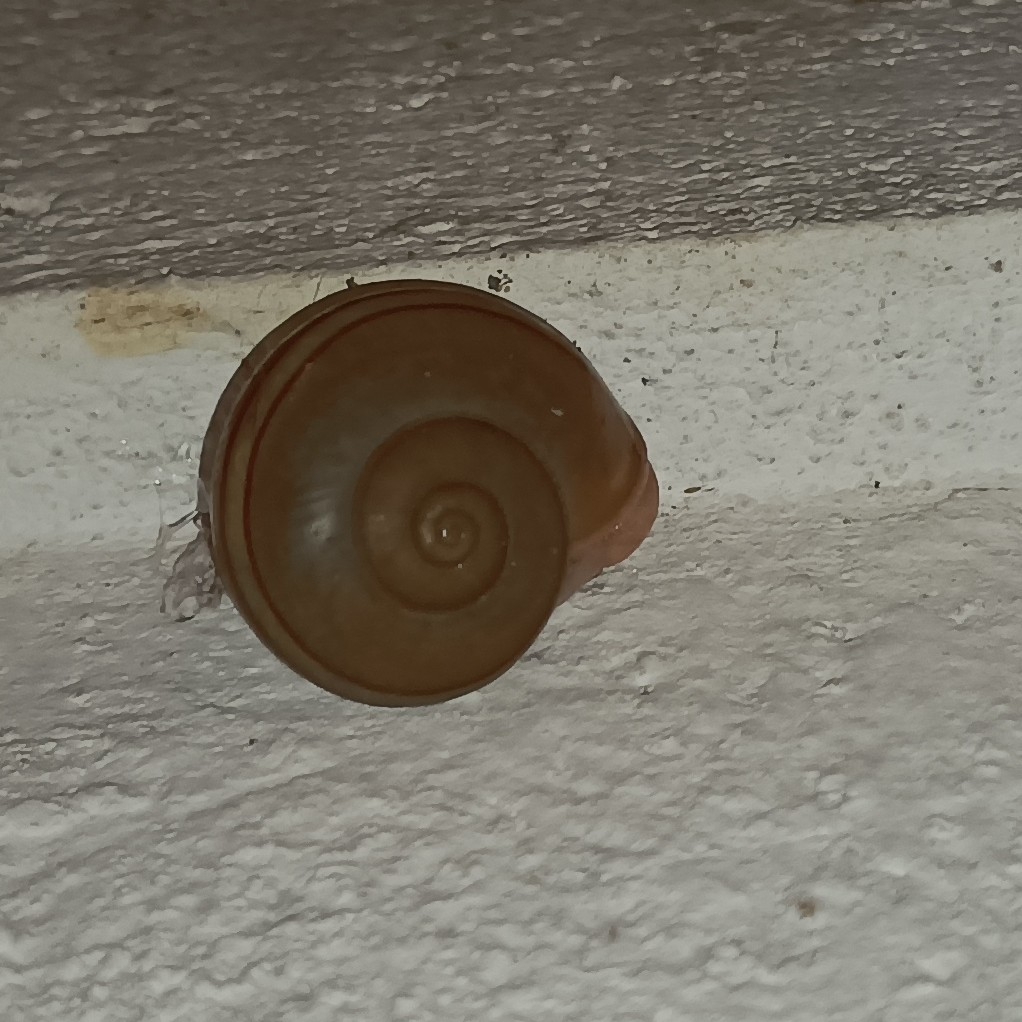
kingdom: Animalia
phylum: Mollusca
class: Gastropoda
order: Stylommatophora
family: Ariophantidae
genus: Ariophanta
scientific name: Ariophanta exilis
